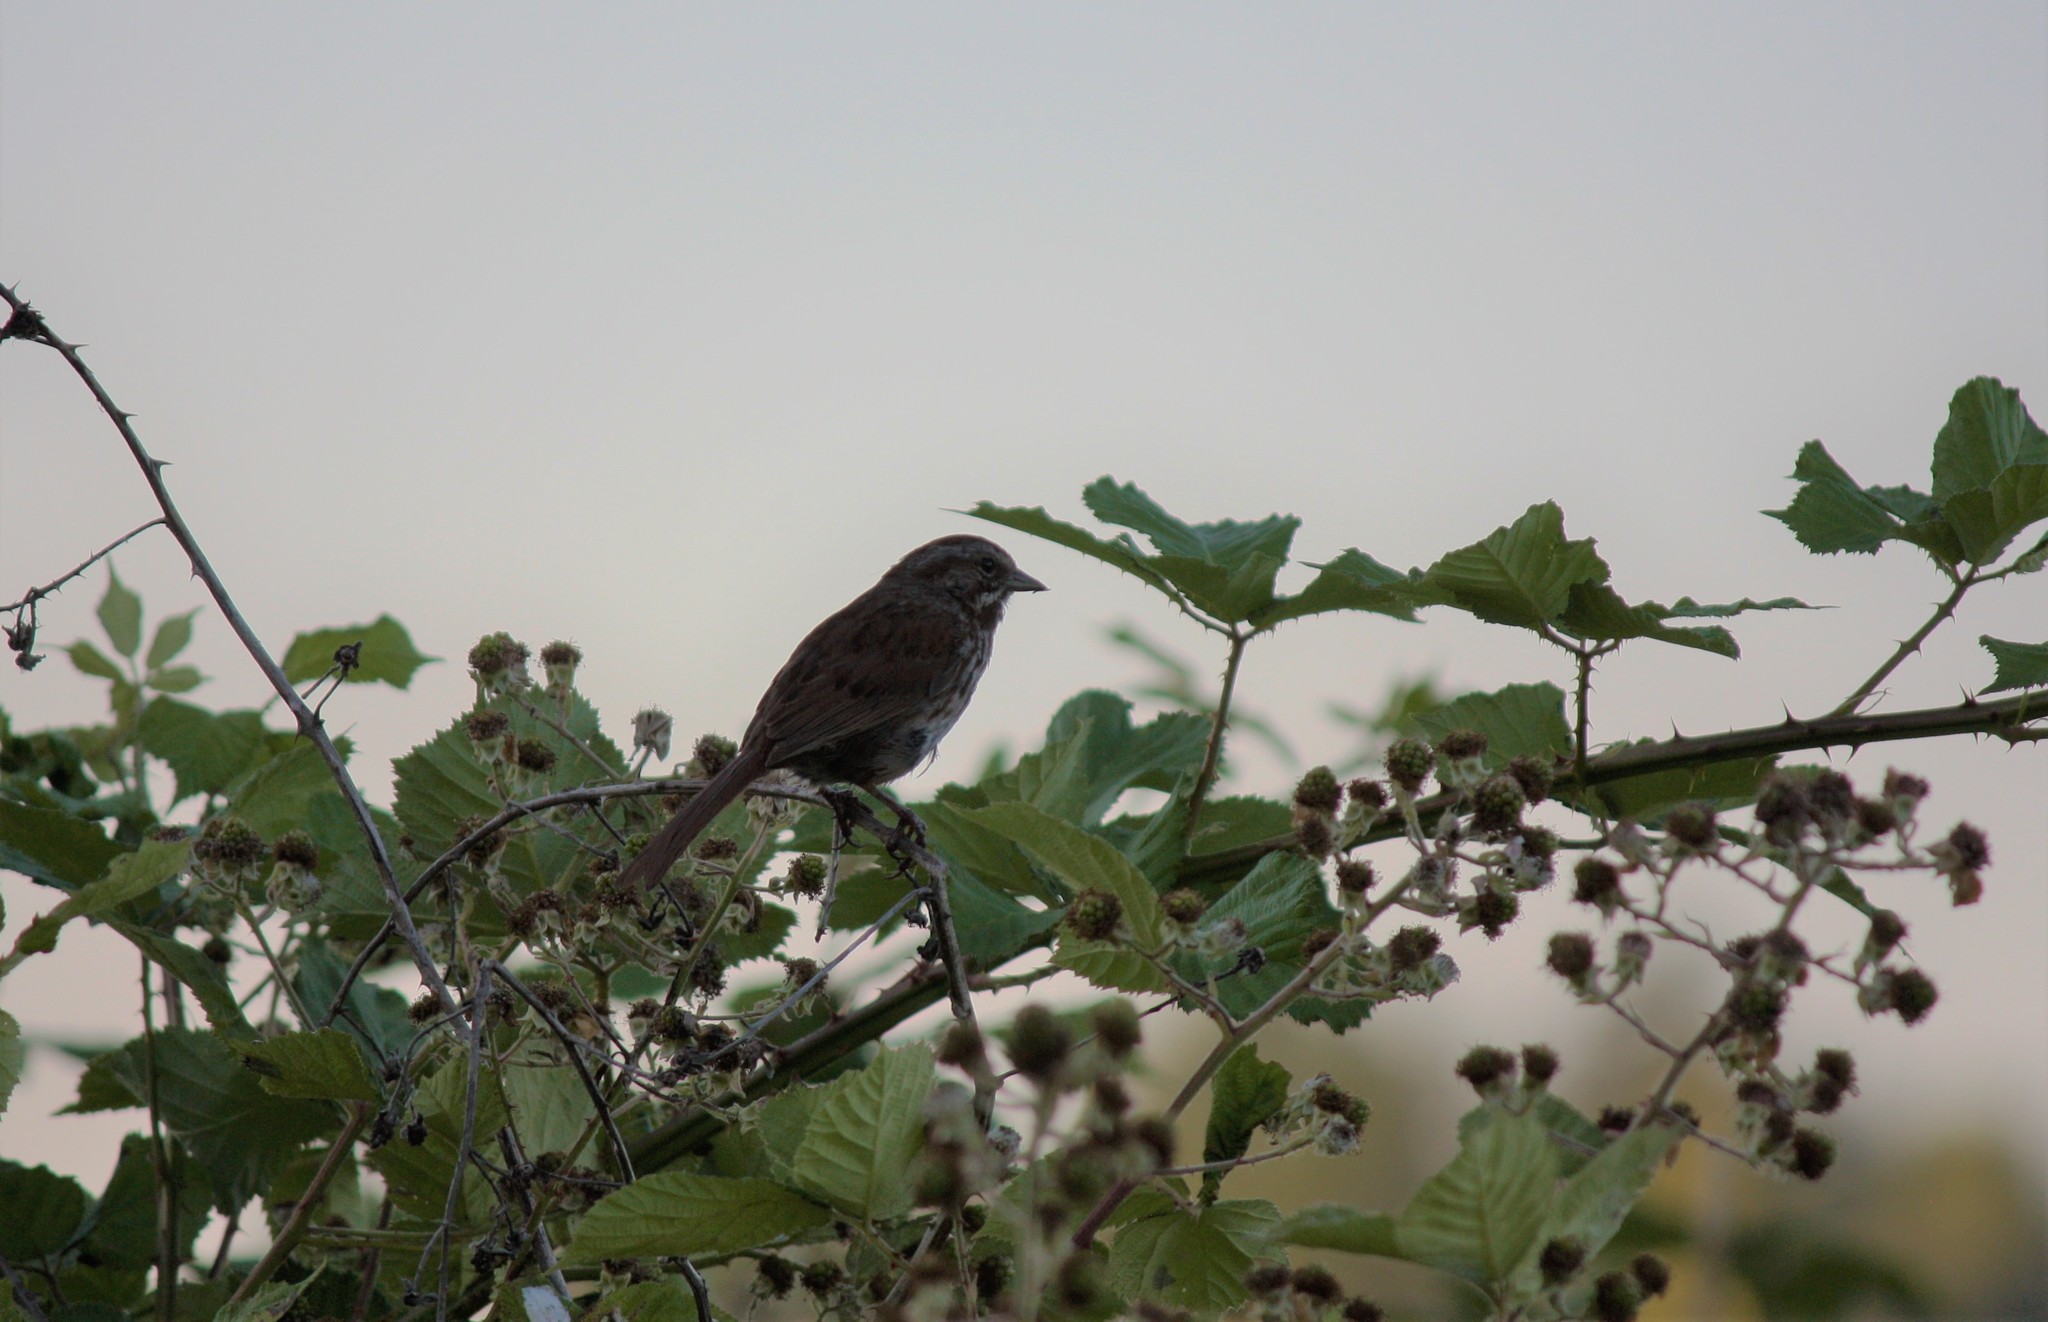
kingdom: Animalia
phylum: Chordata
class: Aves
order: Passeriformes
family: Passerellidae
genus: Melospiza
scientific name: Melospiza melodia
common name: Song sparrow
